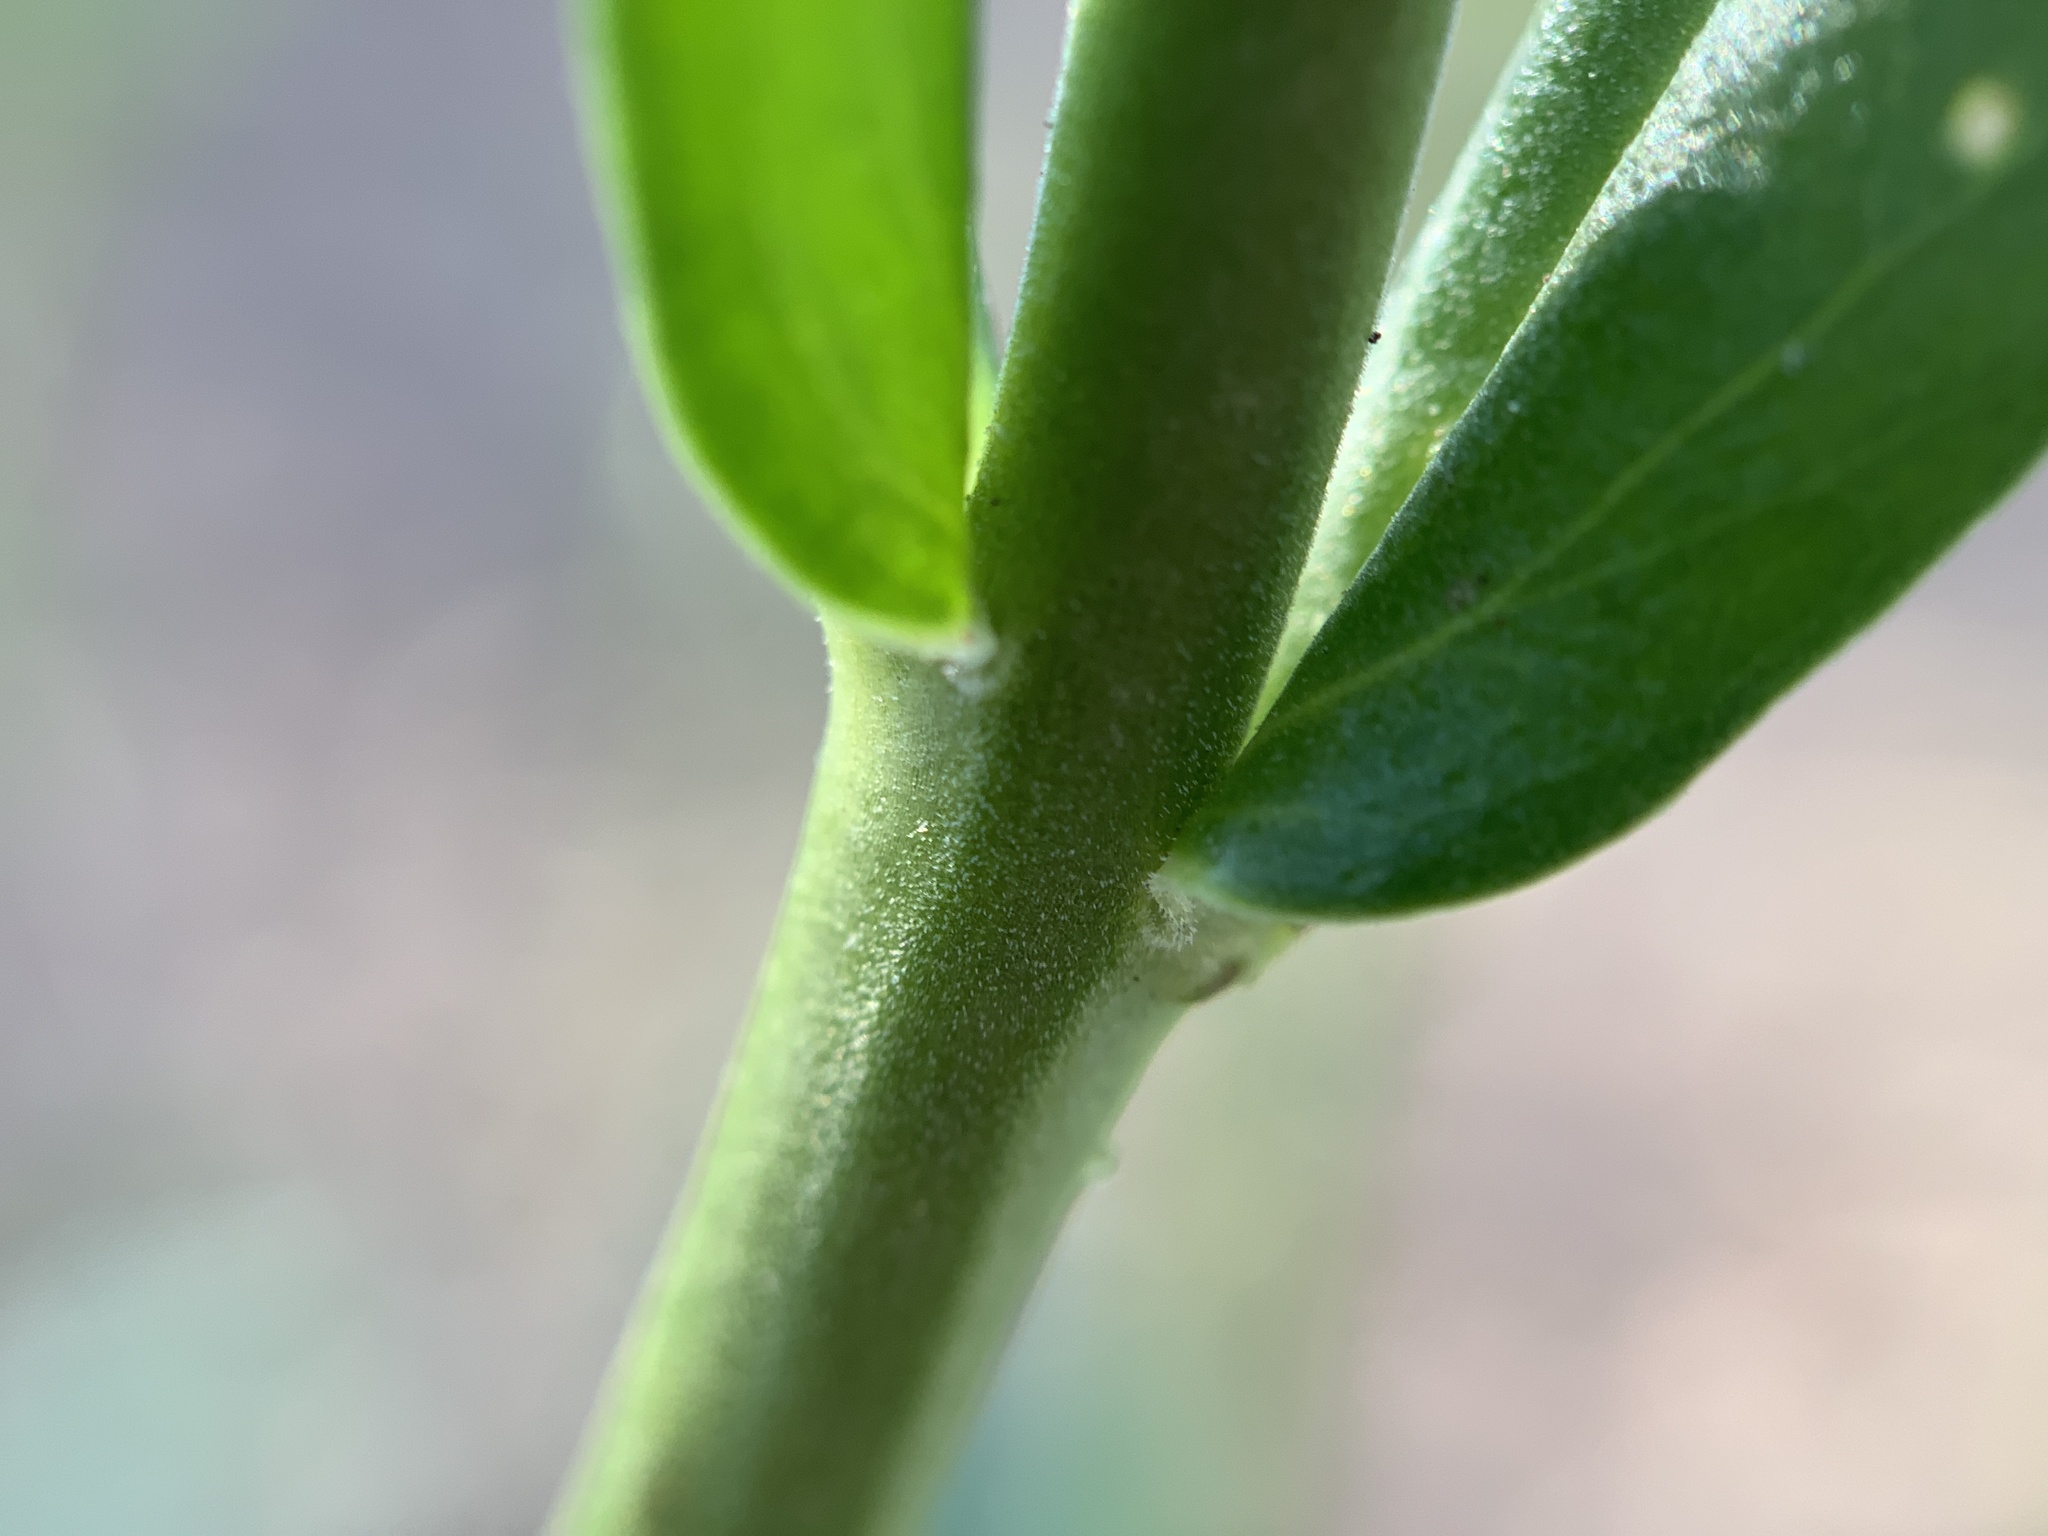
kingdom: Plantae
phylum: Tracheophyta
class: Magnoliopsida
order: Lamiales
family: Plantaginaceae
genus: Penstemon
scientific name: Penstemon pratensis
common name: White-flower penstemon
